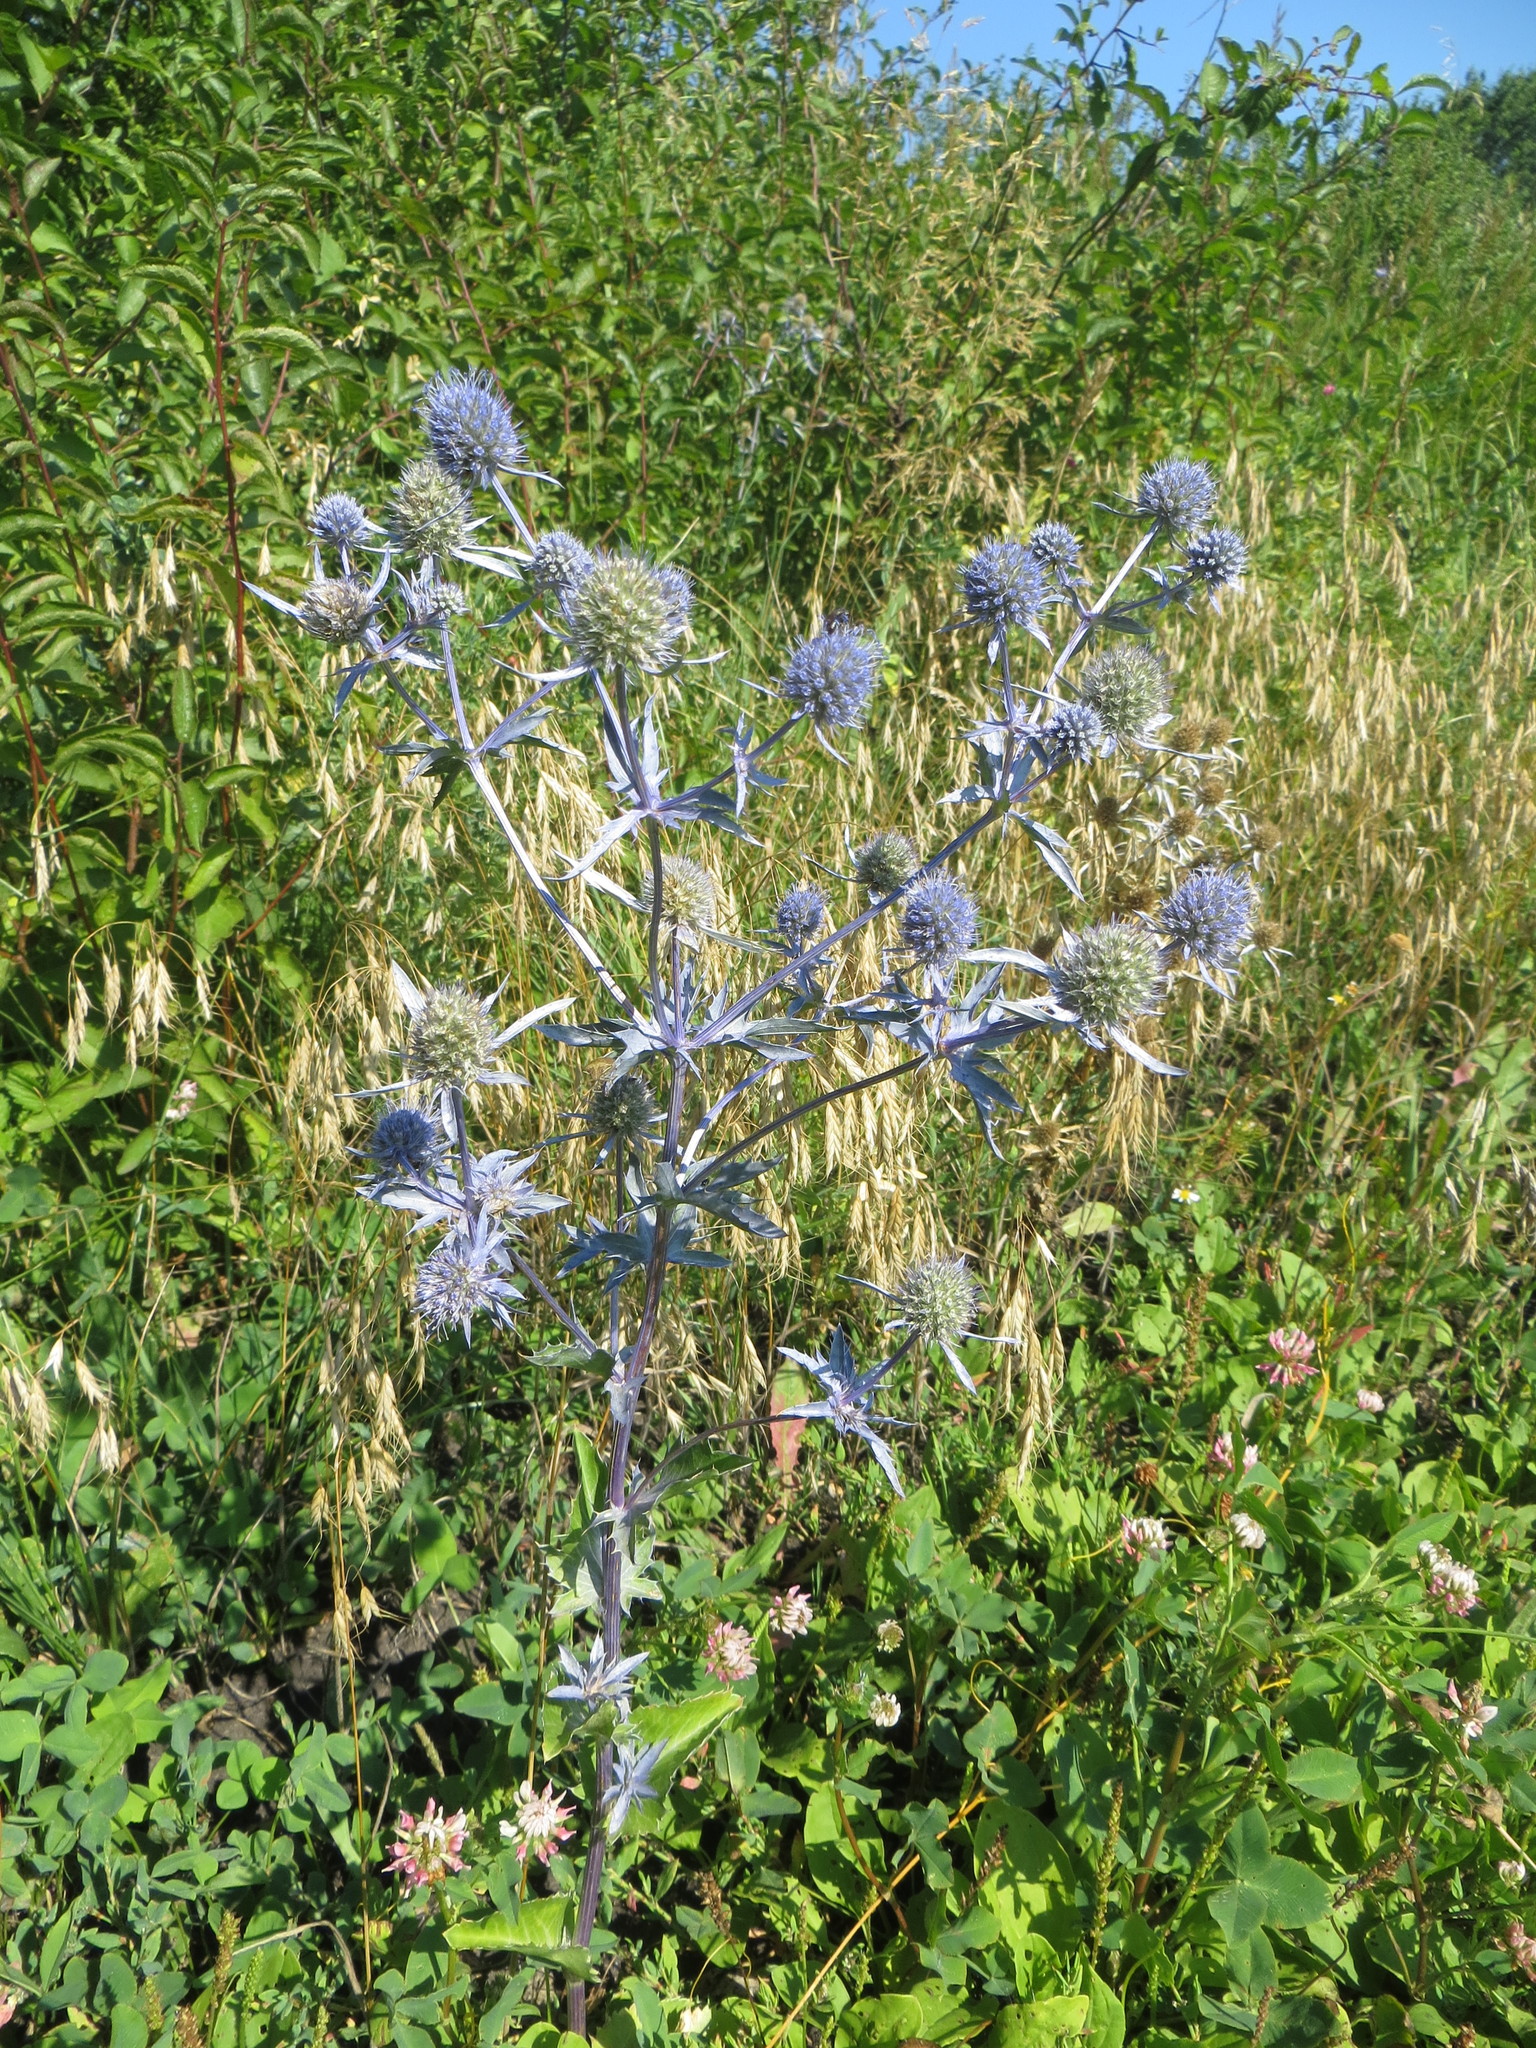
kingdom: Plantae
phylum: Tracheophyta
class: Magnoliopsida
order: Apiales
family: Apiaceae
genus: Eryngium
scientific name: Eryngium planum
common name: Blue eryngo
